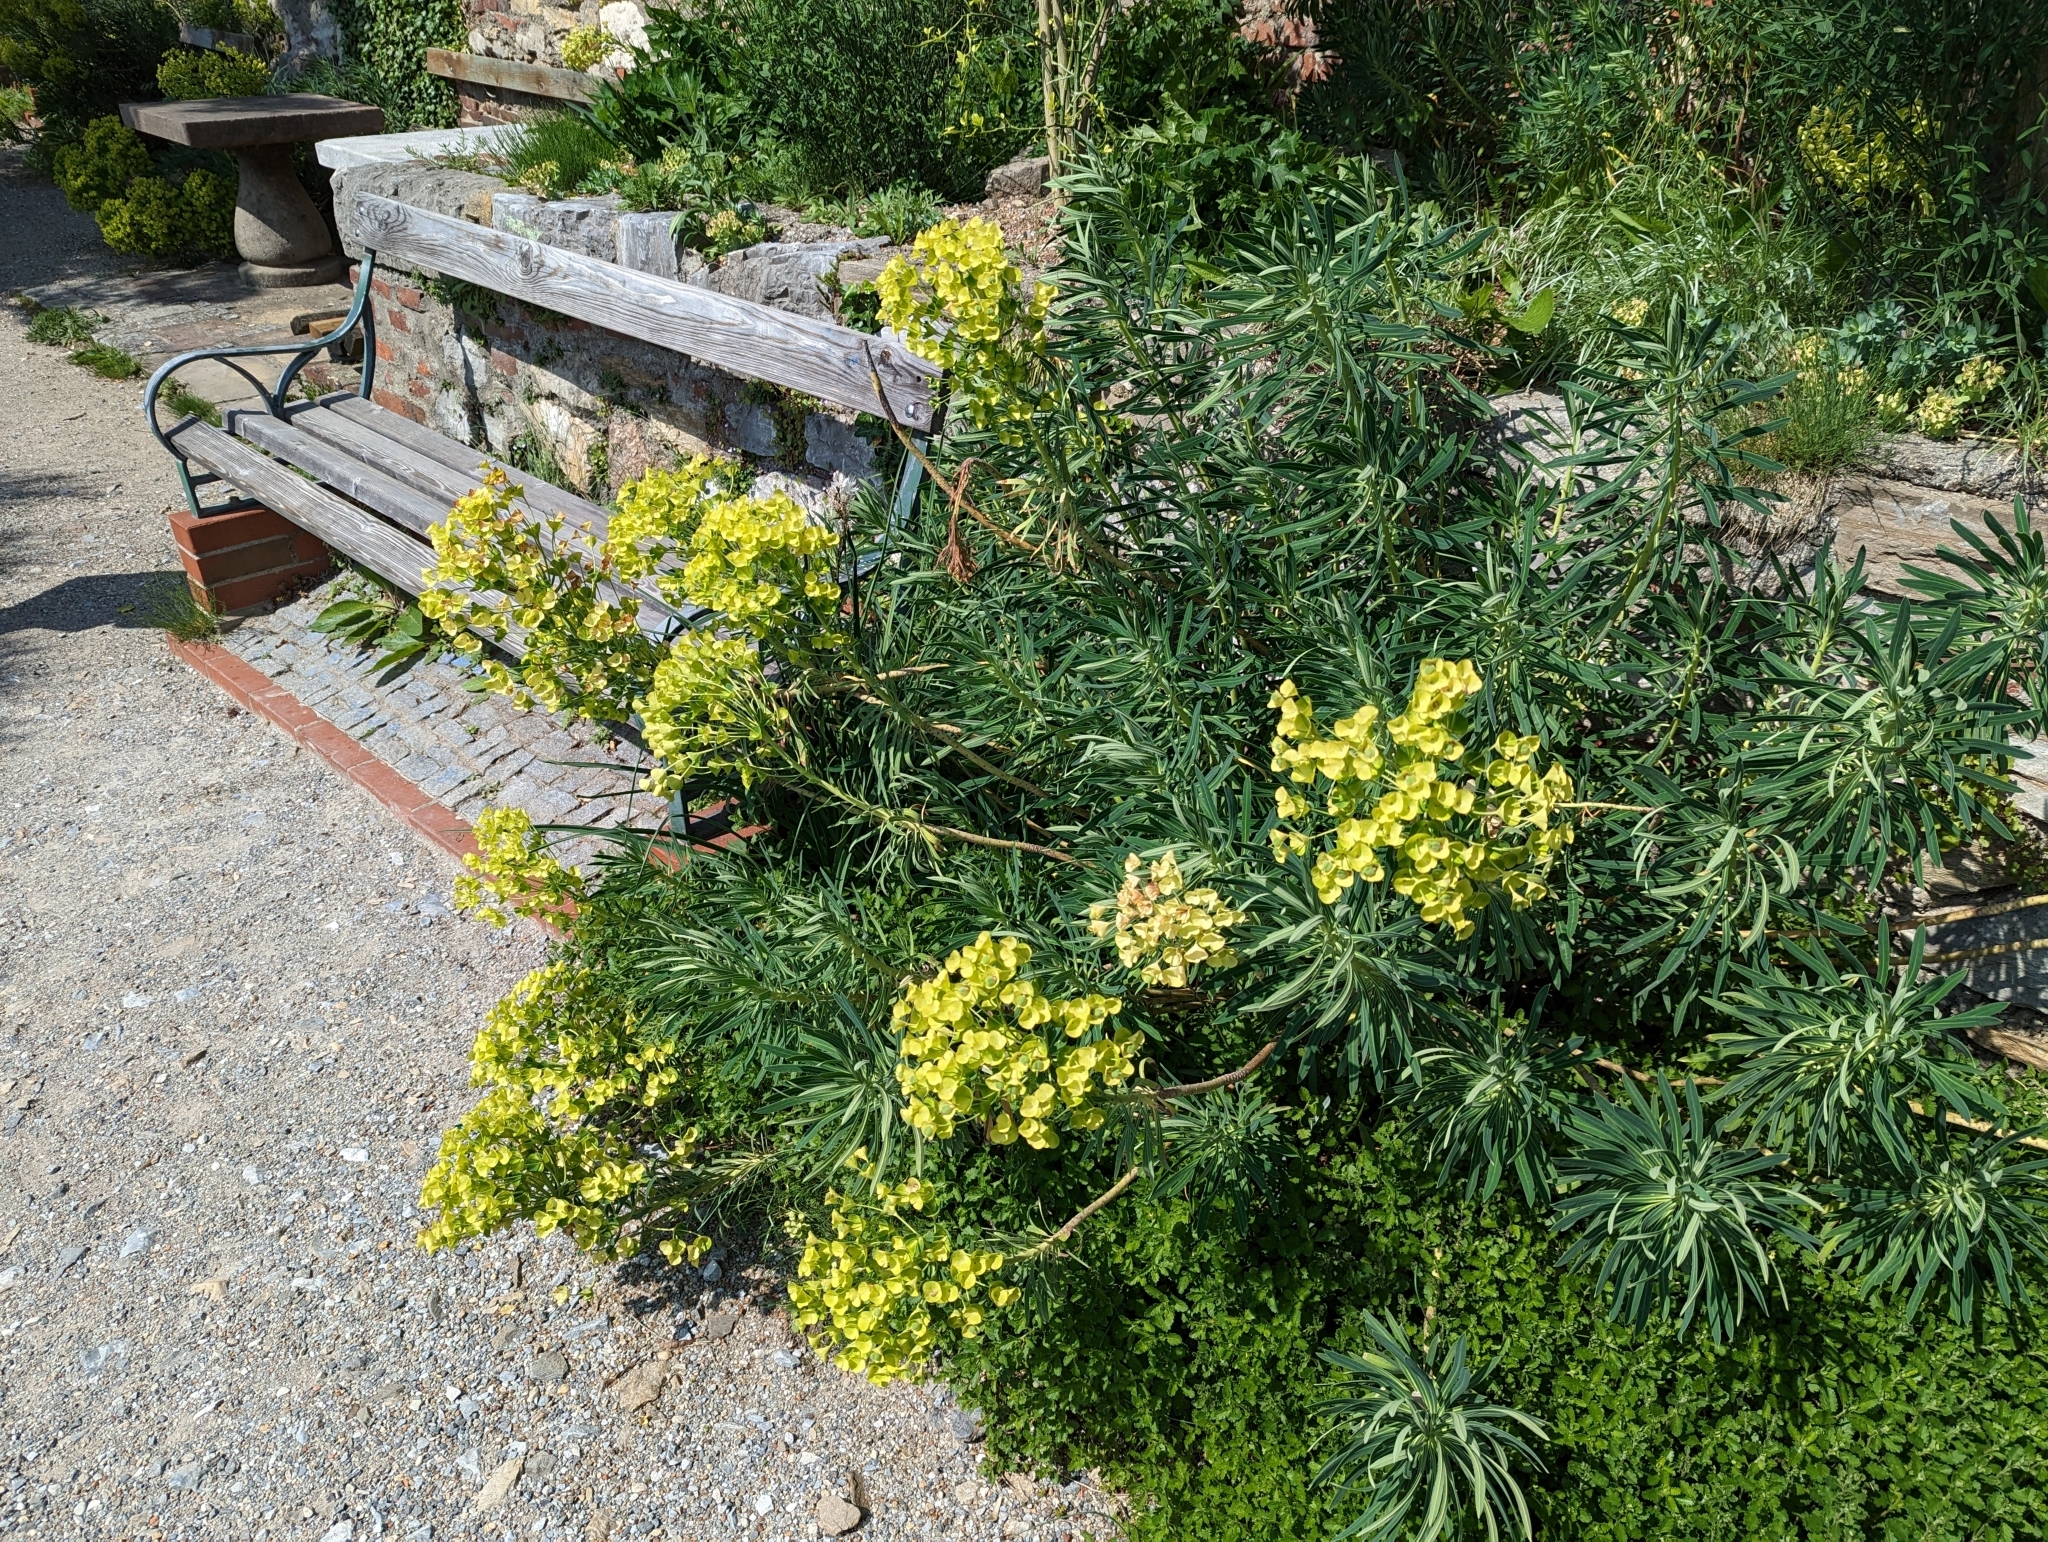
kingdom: Plantae
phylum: Tracheophyta
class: Magnoliopsida
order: Malpighiales
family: Euphorbiaceae
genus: Euphorbia
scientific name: Euphorbia characias
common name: Mediterranean spurge
